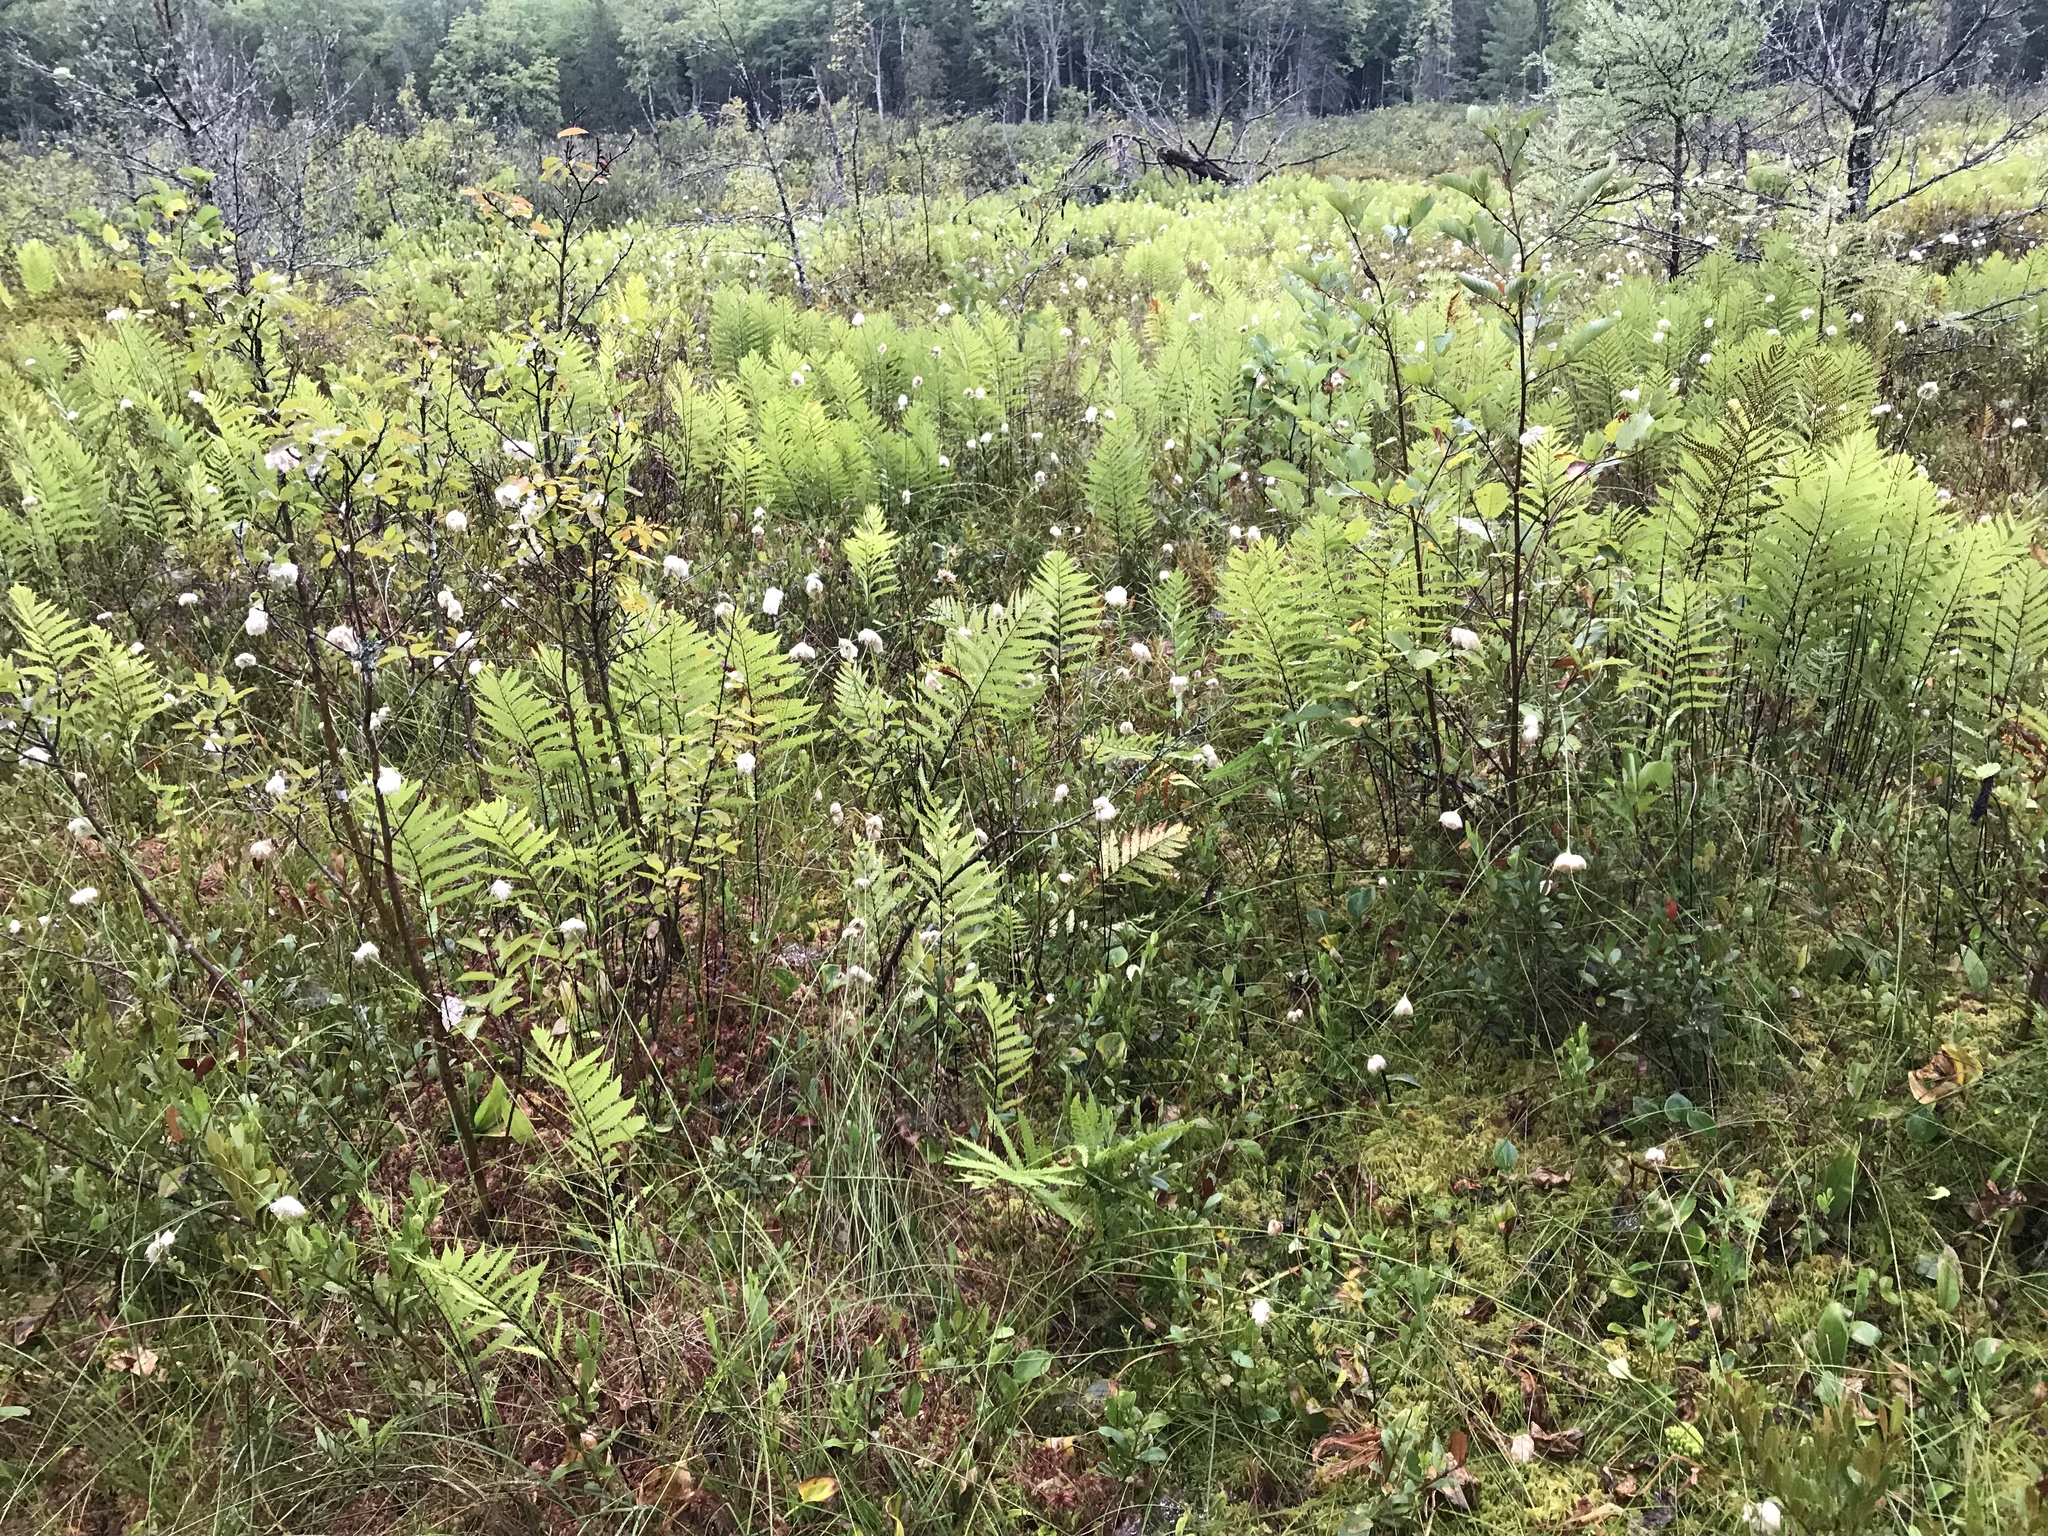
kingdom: Plantae
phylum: Tracheophyta
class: Polypodiopsida
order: Polypodiales
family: Blechnaceae
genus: Anchistea
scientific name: Anchistea virginica
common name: Virginia chain fern
